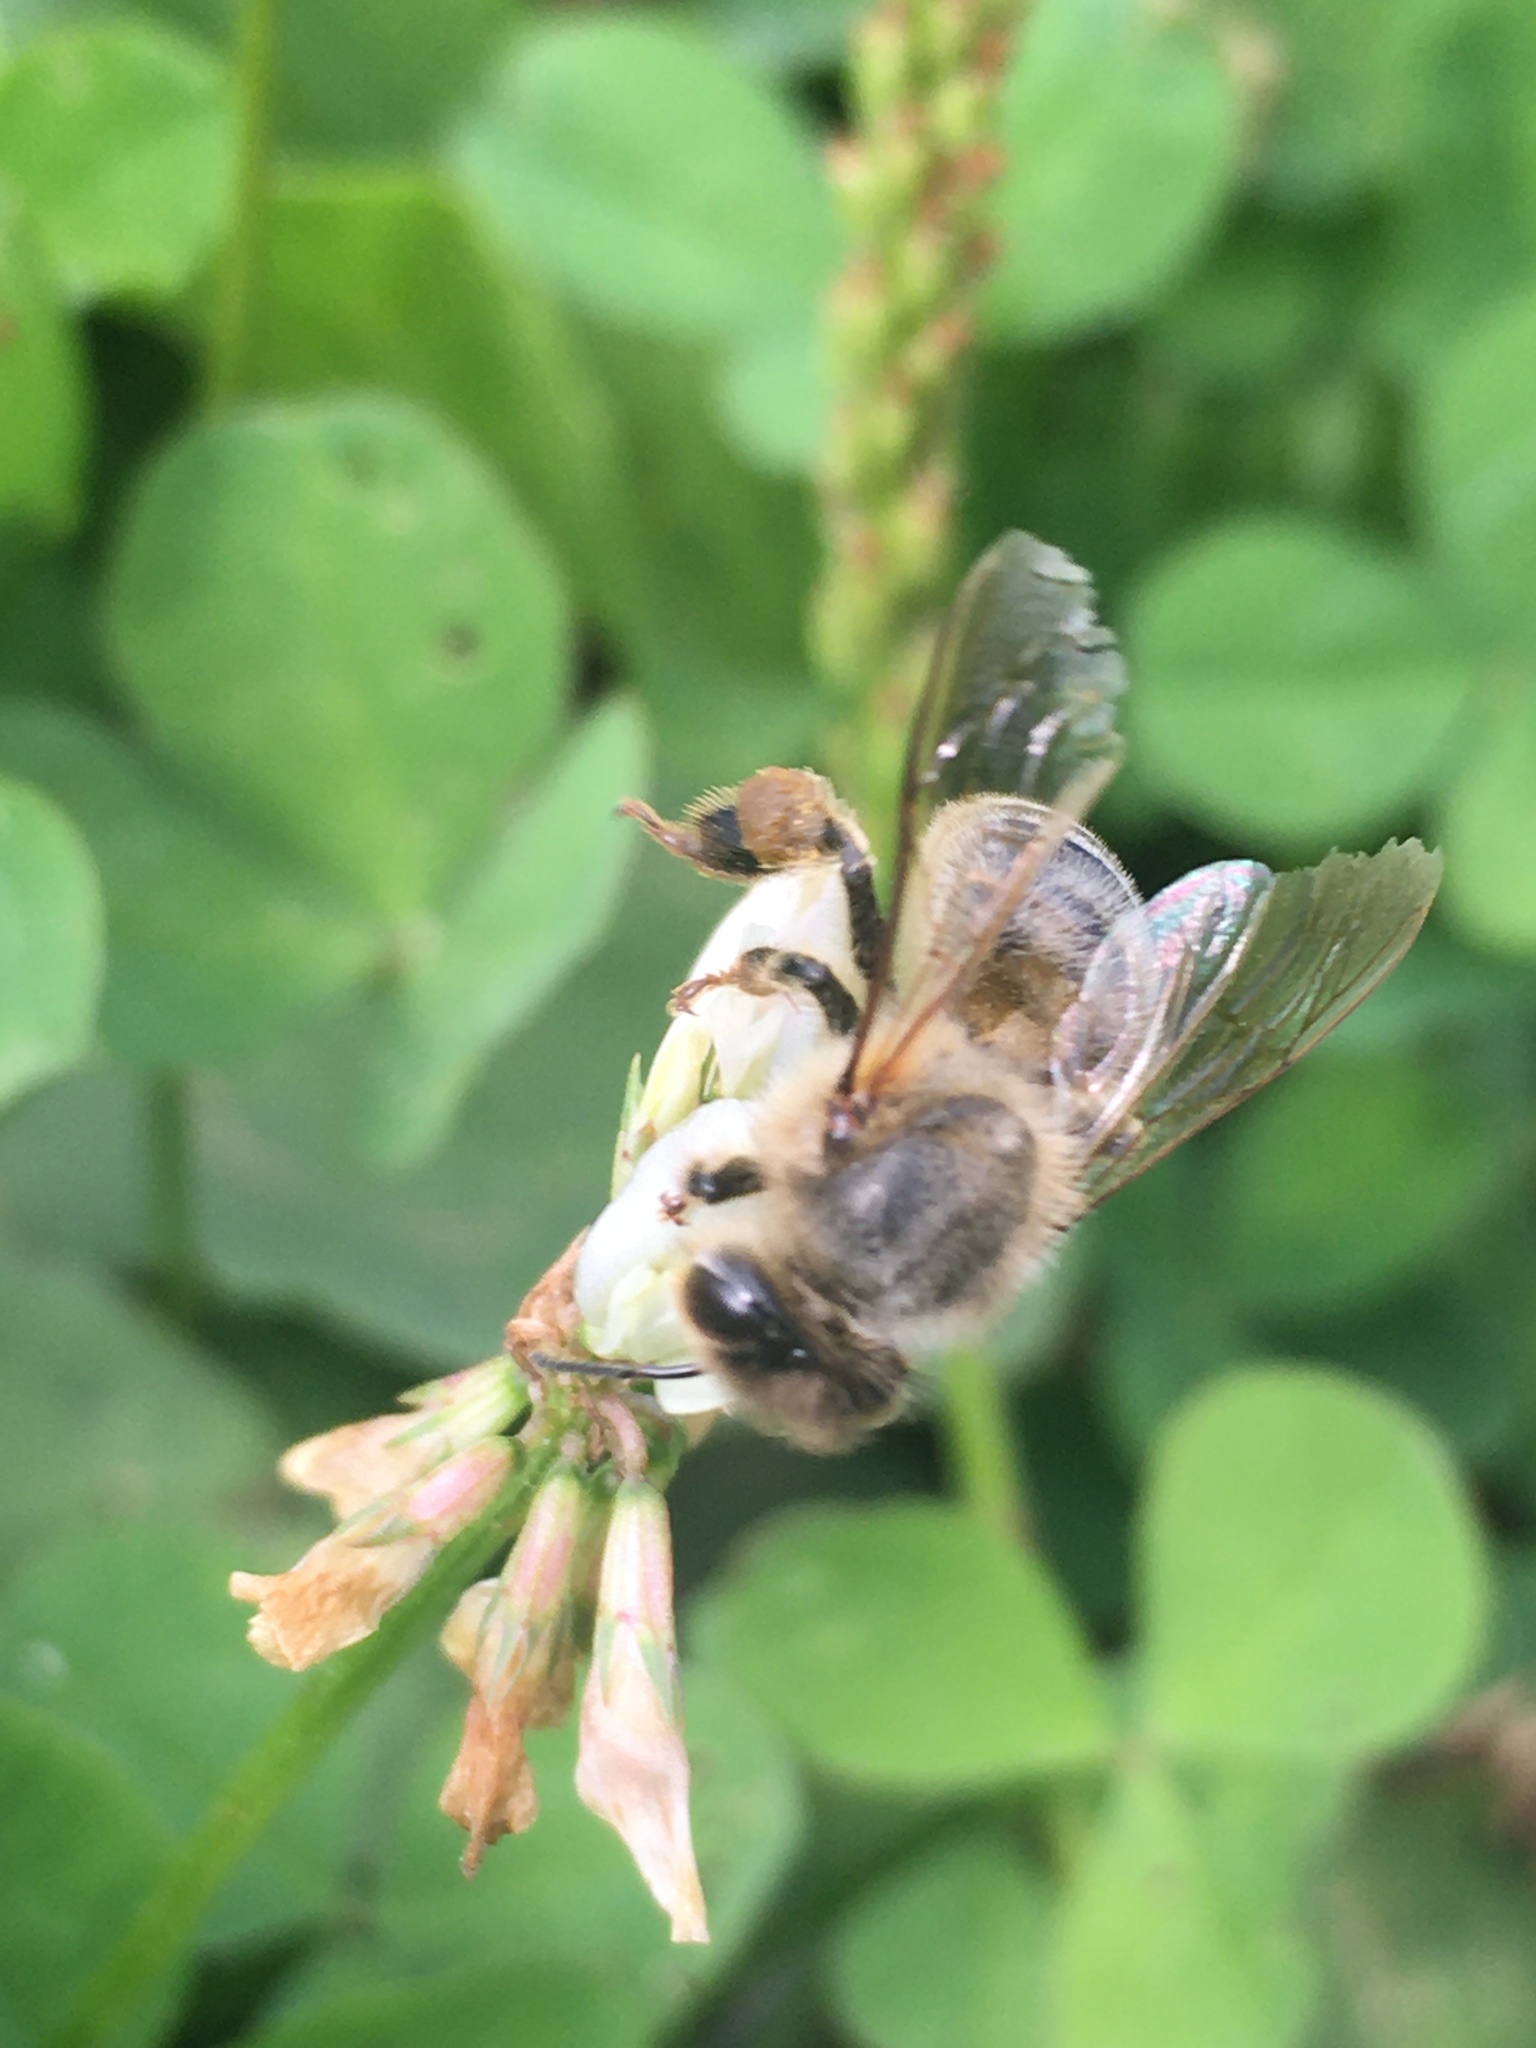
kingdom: Animalia
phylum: Arthropoda
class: Insecta
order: Hymenoptera
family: Apidae
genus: Apis
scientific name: Apis mellifera
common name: Honey bee
